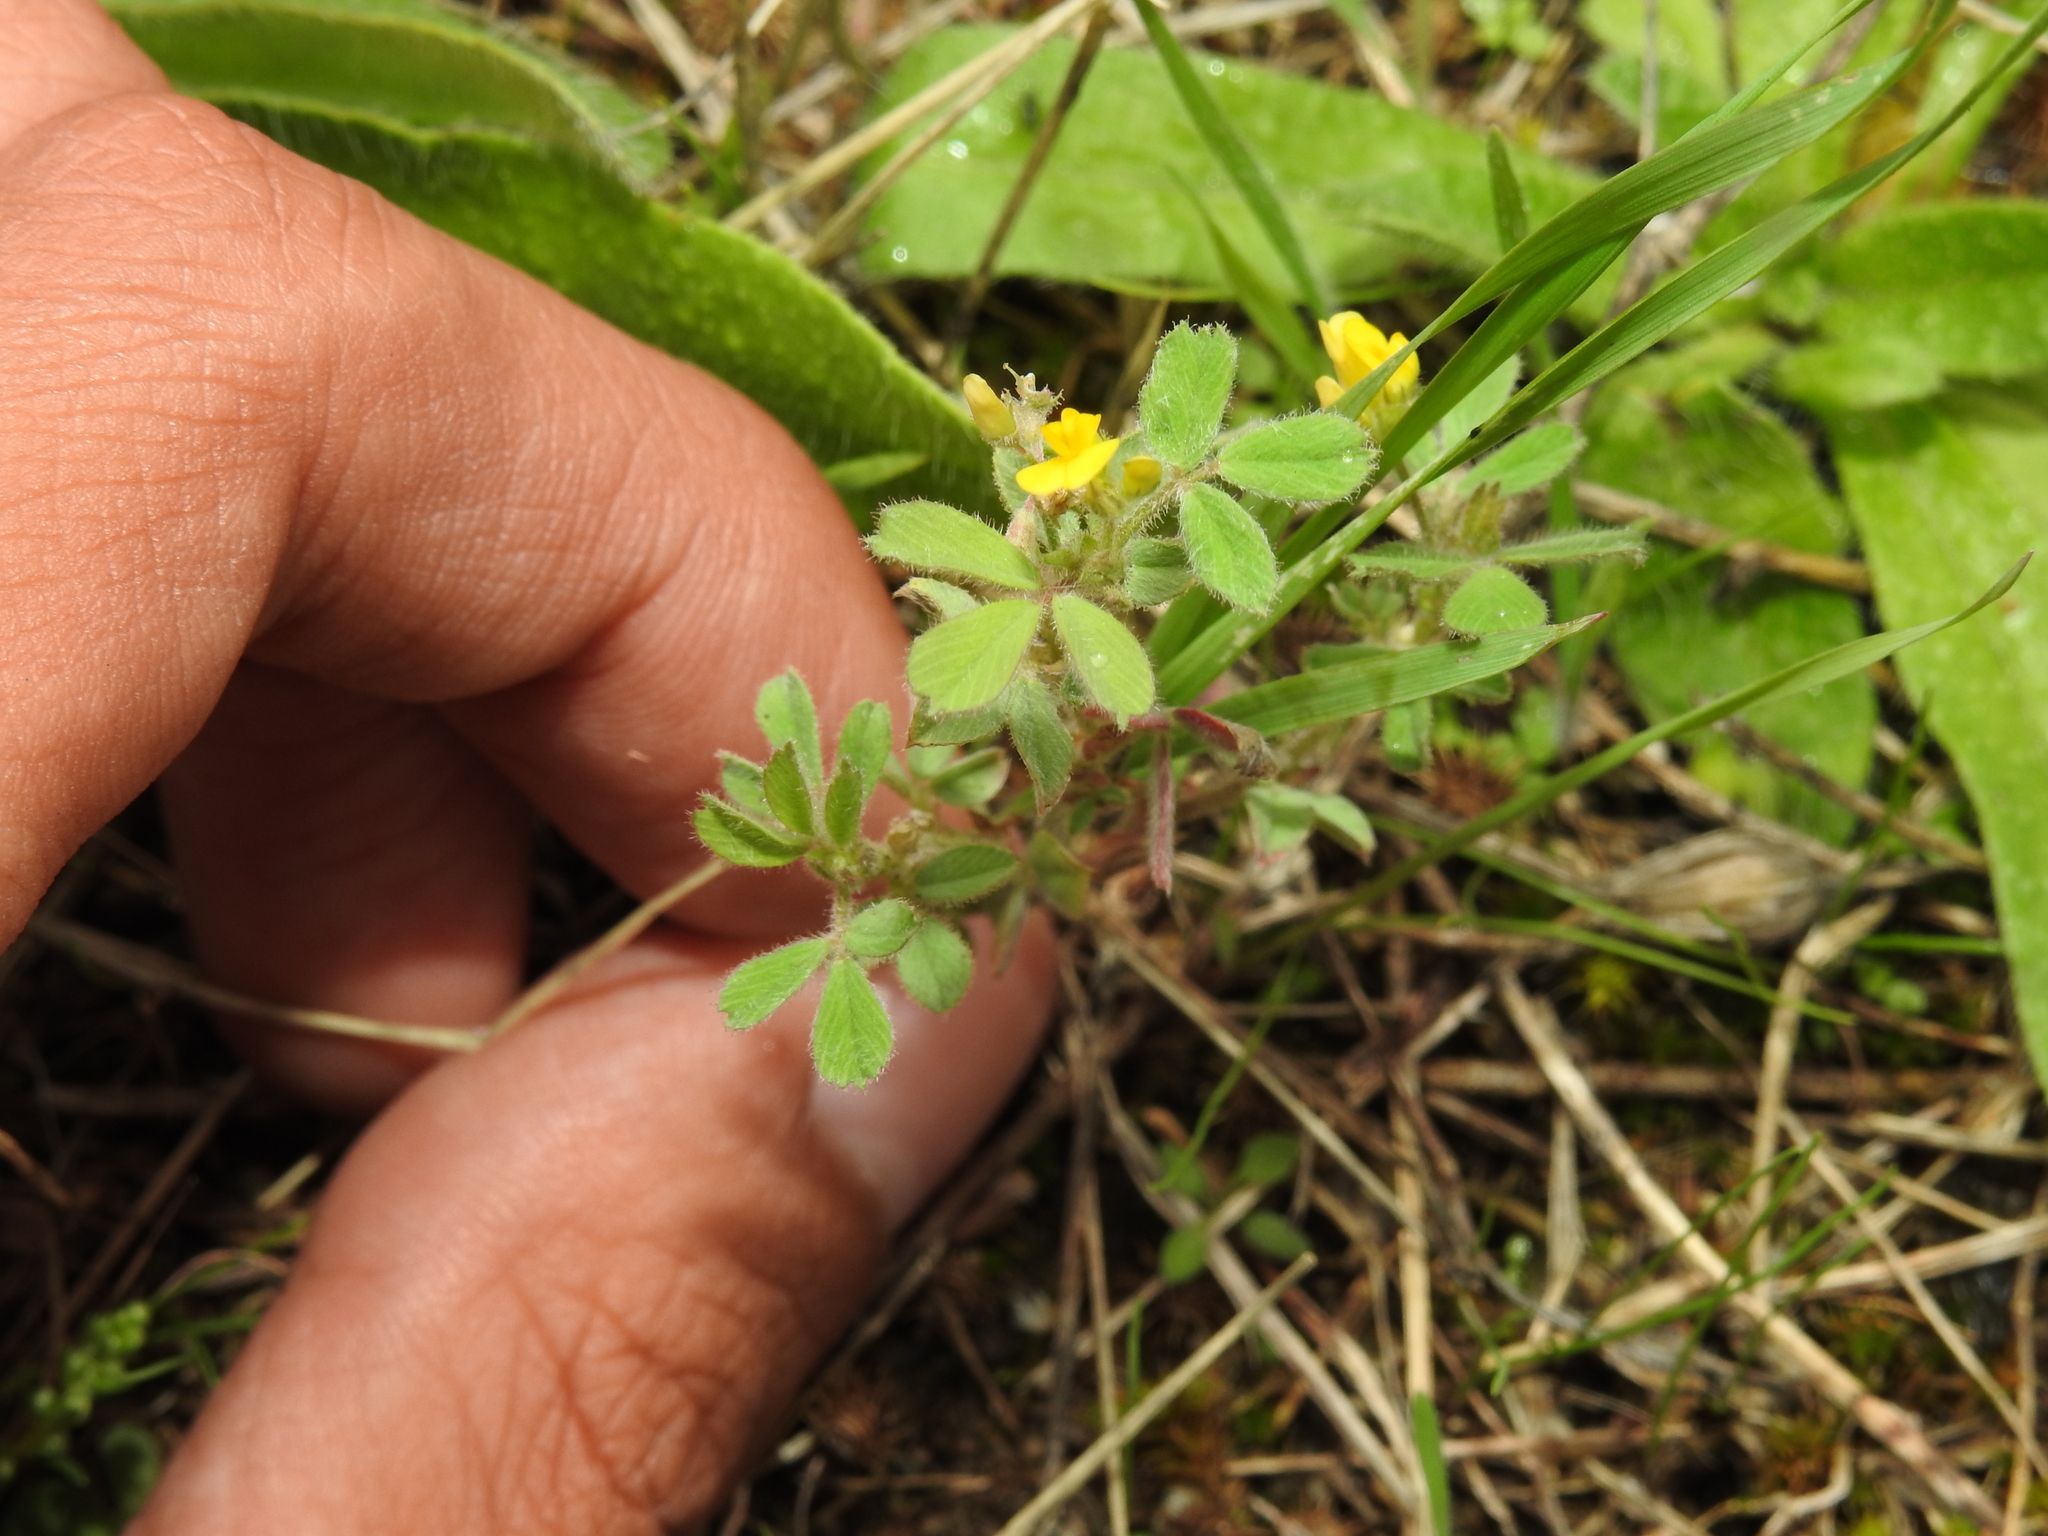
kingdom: Plantae
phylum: Tracheophyta
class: Magnoliopsida
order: Fabales
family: Fabaceae
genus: Medicago
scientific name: Medicago minima
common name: Little bur-clover
